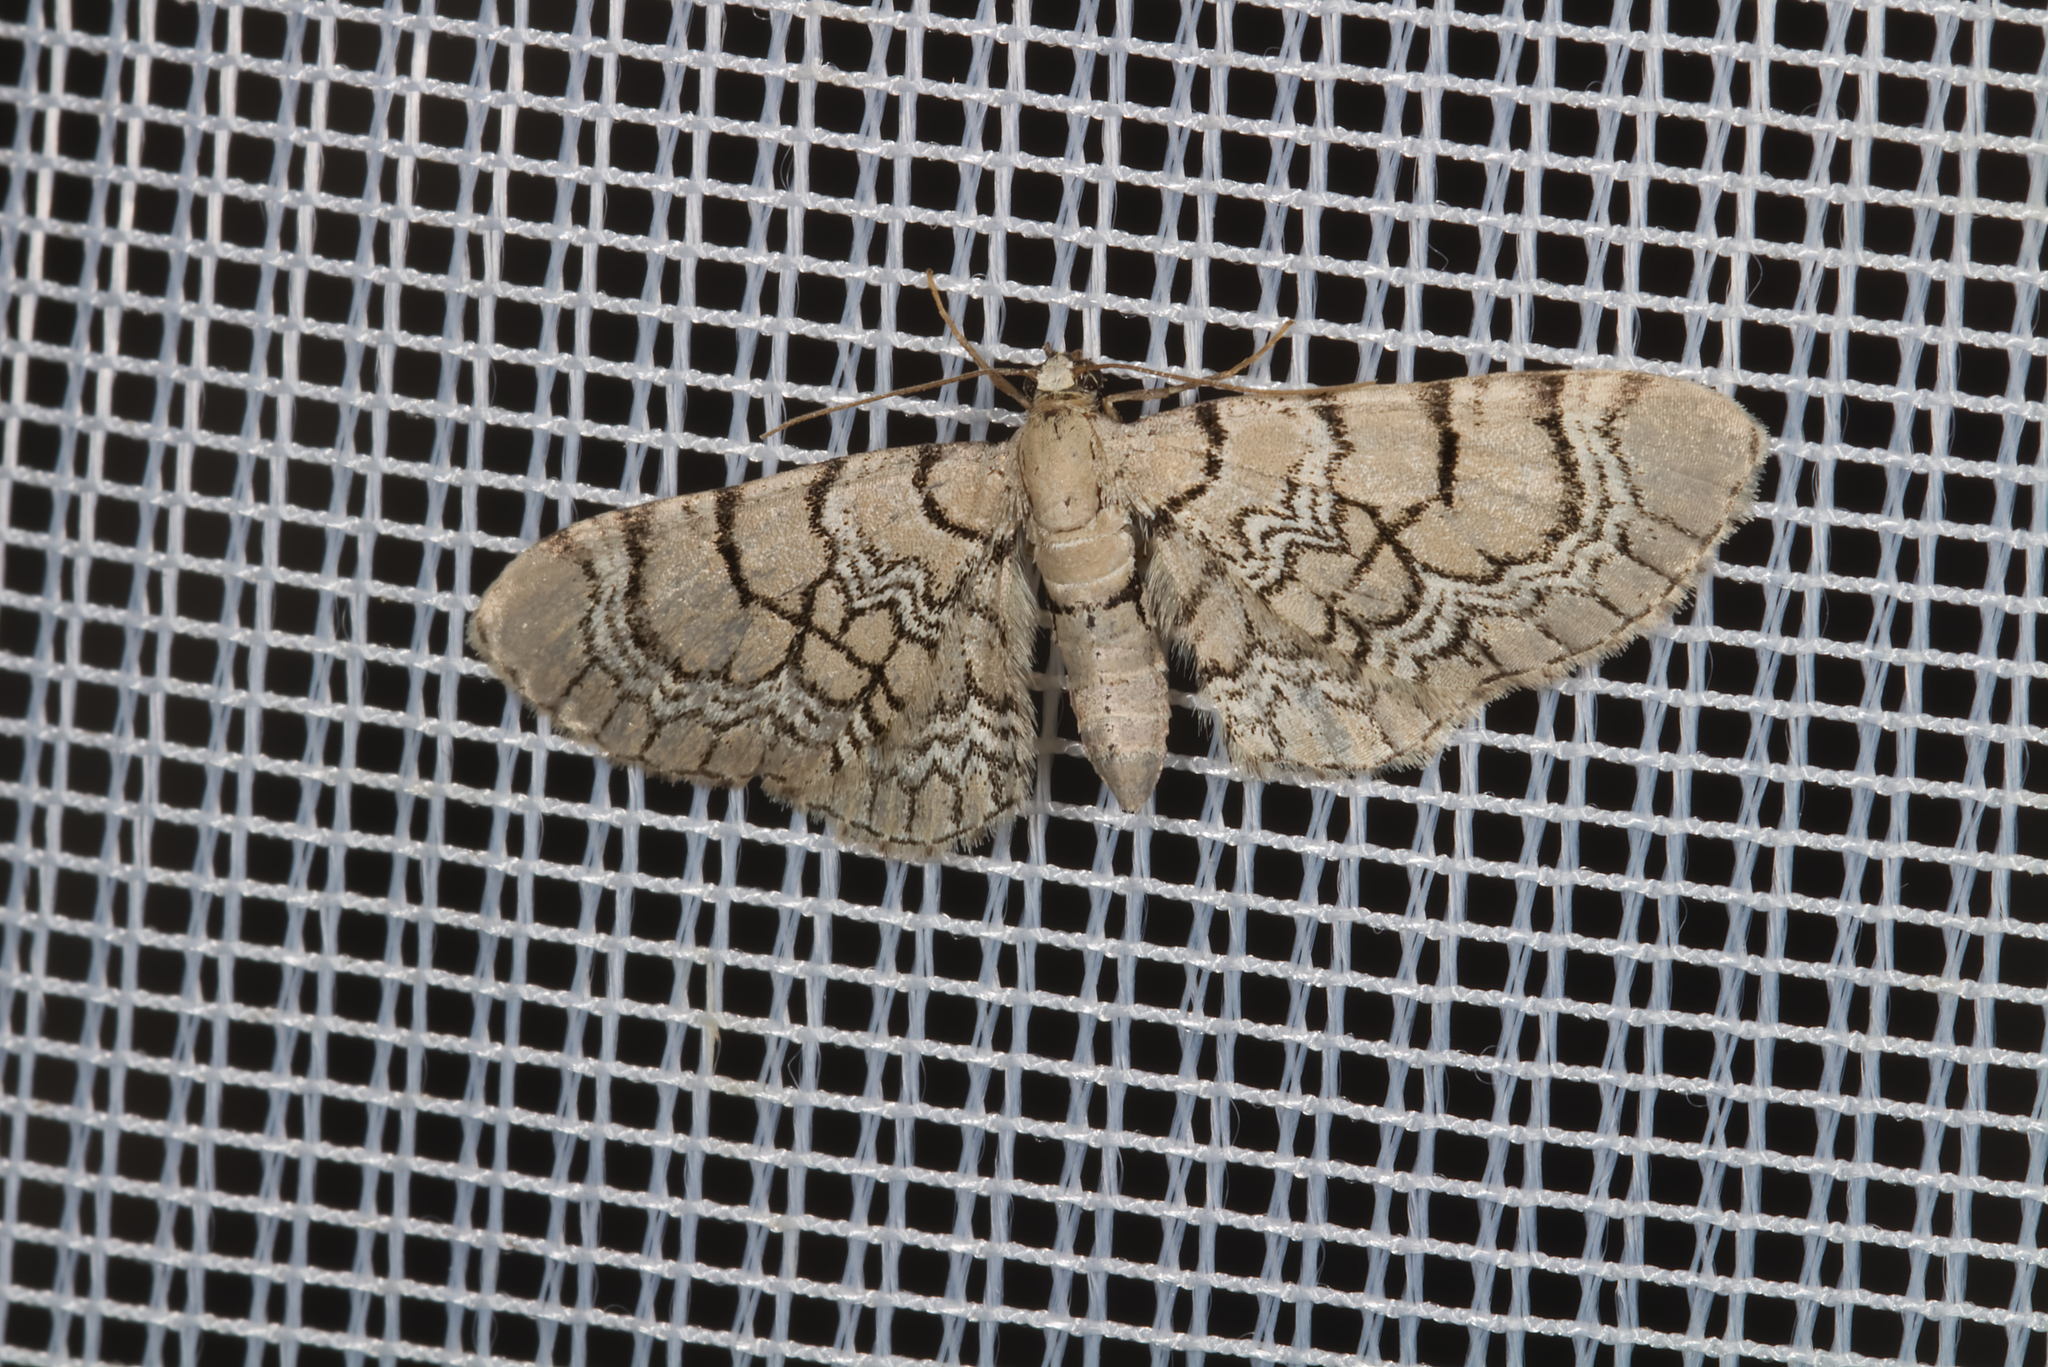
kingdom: Animalia
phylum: Arthropoda
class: Insecta
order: Lepidoptera
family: Geometridae
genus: Eupithecia
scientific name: Eupithecia venosata
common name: Netted pug
